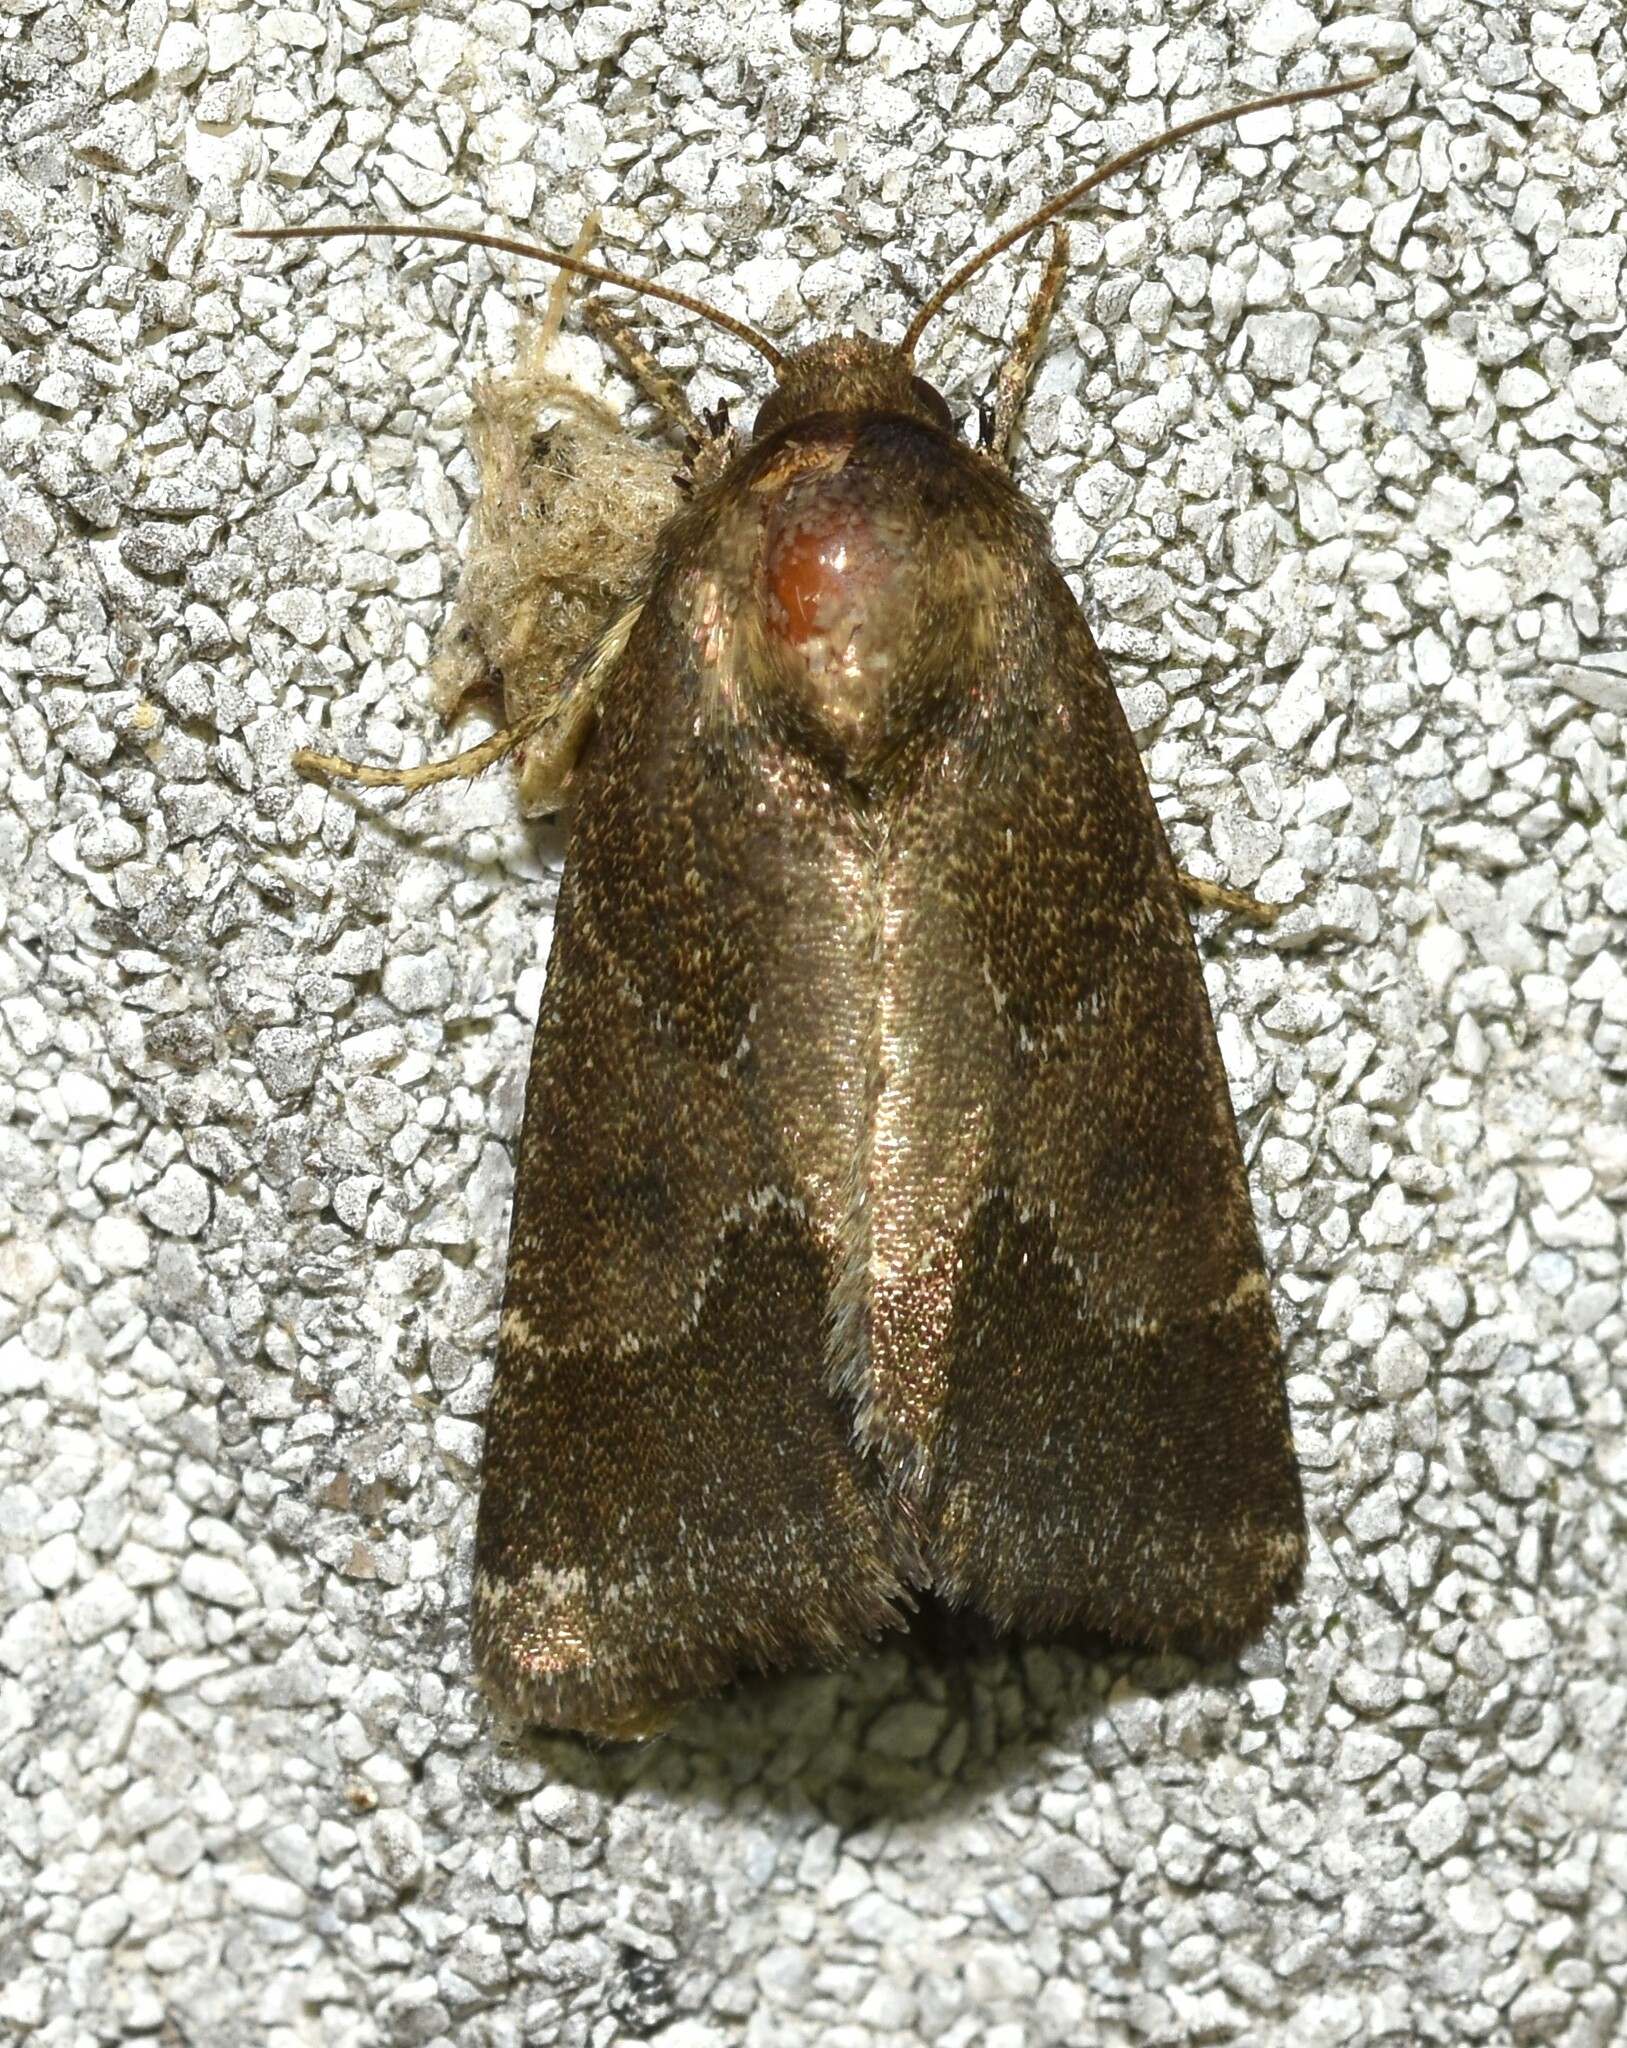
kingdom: Animalia
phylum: Arthropoda
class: Insecta
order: Lepidoptera
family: Noctuidae
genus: Schinia
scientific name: Schinia thoreaui
